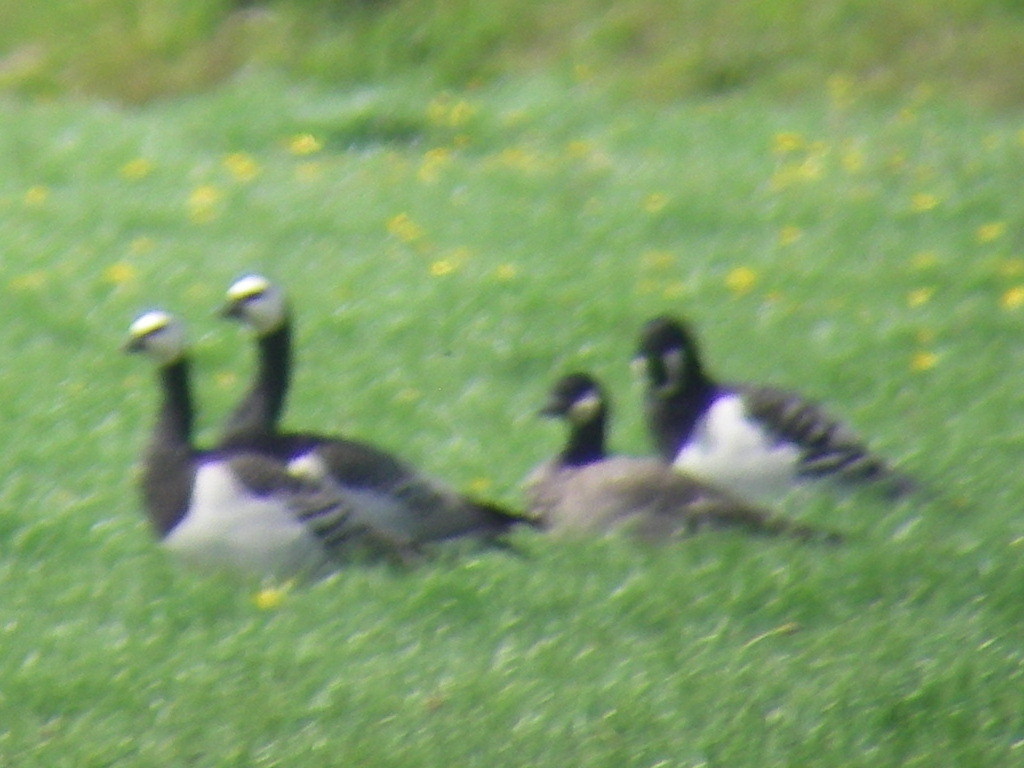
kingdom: Animalia
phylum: Chordata
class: Aves
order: Anseriformes
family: Anatidae
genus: Branta
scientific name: Branta hutchinsii
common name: Cackling goose
